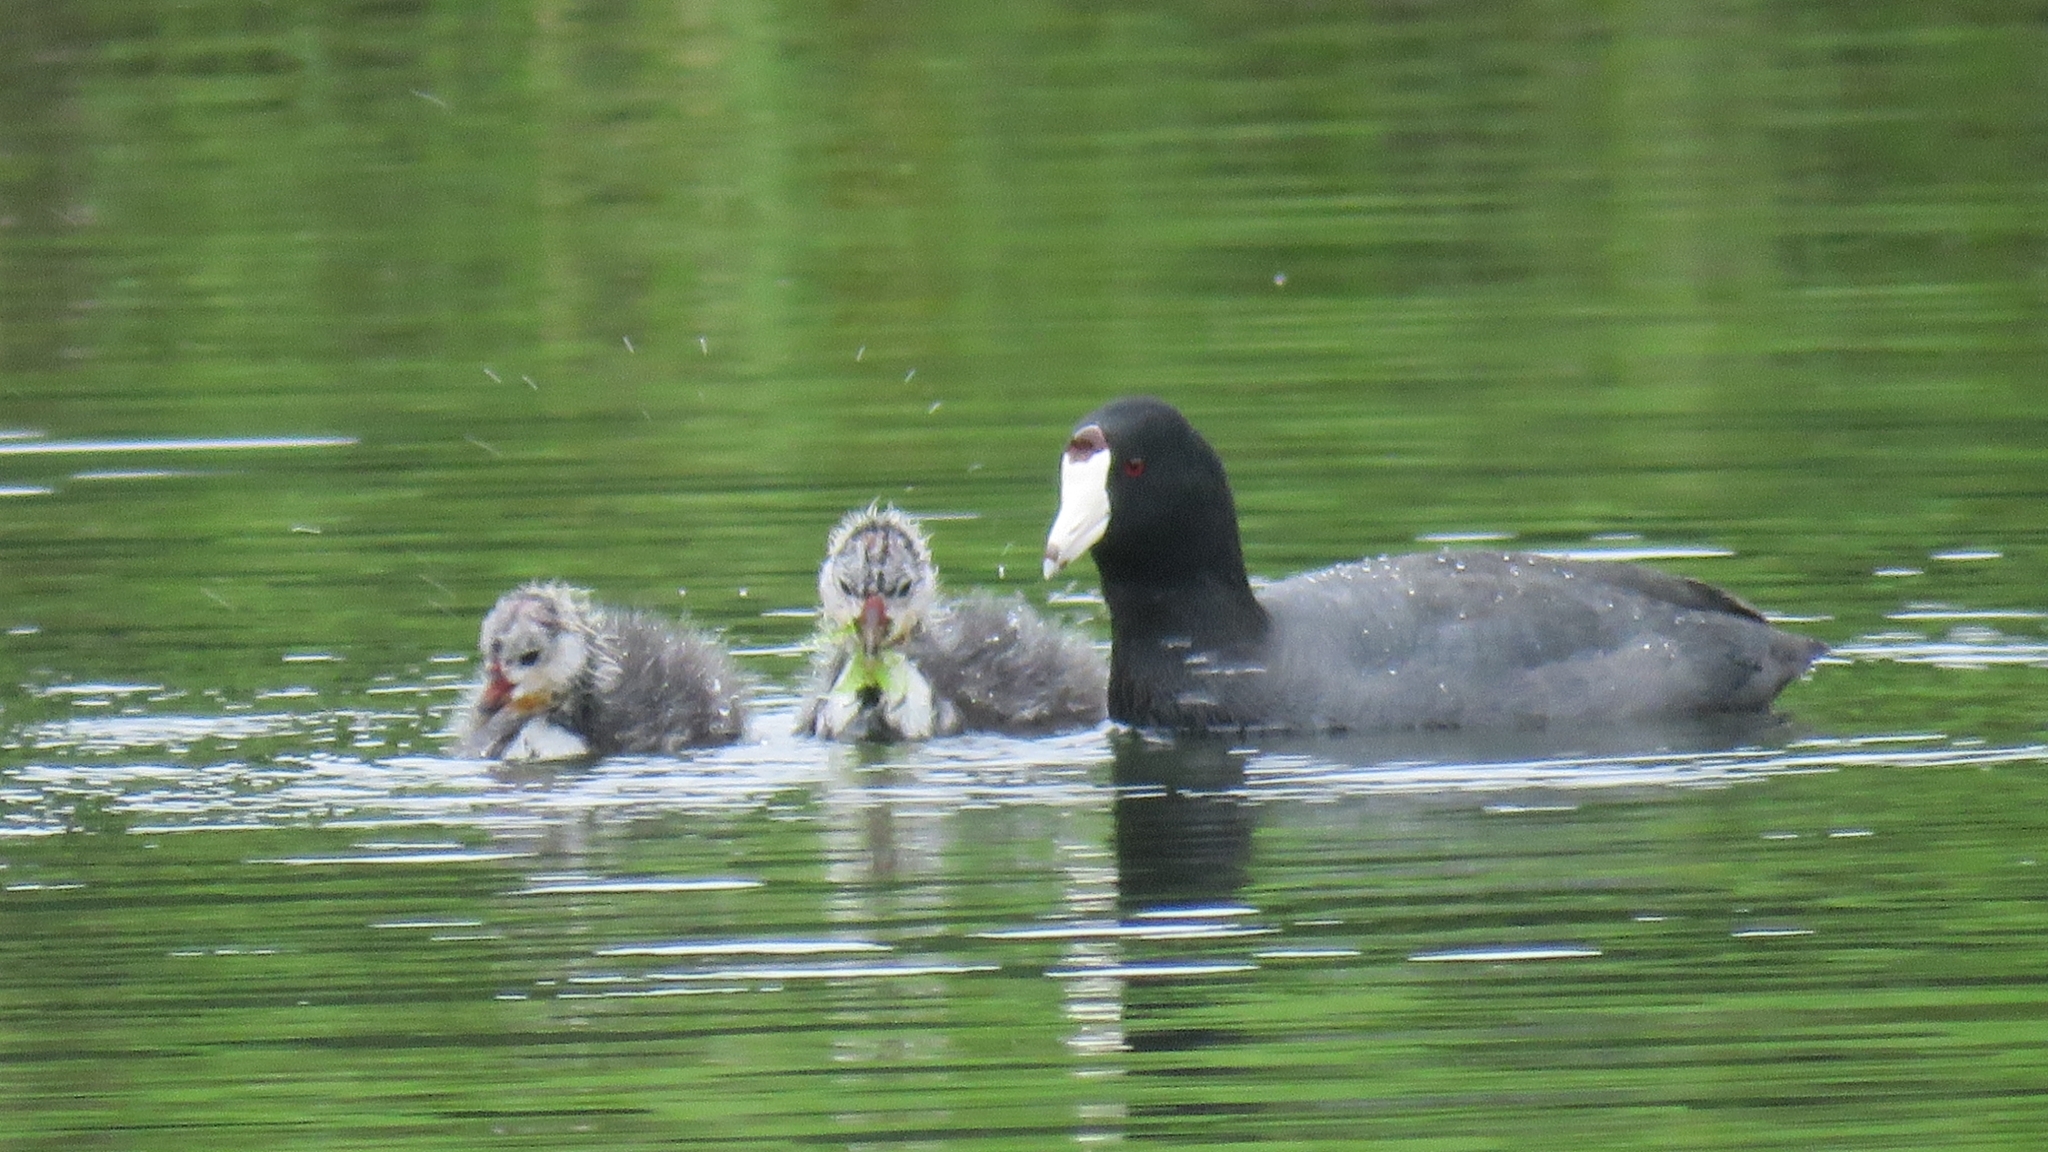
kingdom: Animalia
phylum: Chordata
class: Aves
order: Gruiformes
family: Rallidae
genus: Fulica
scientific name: Fulica americana
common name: American coot
